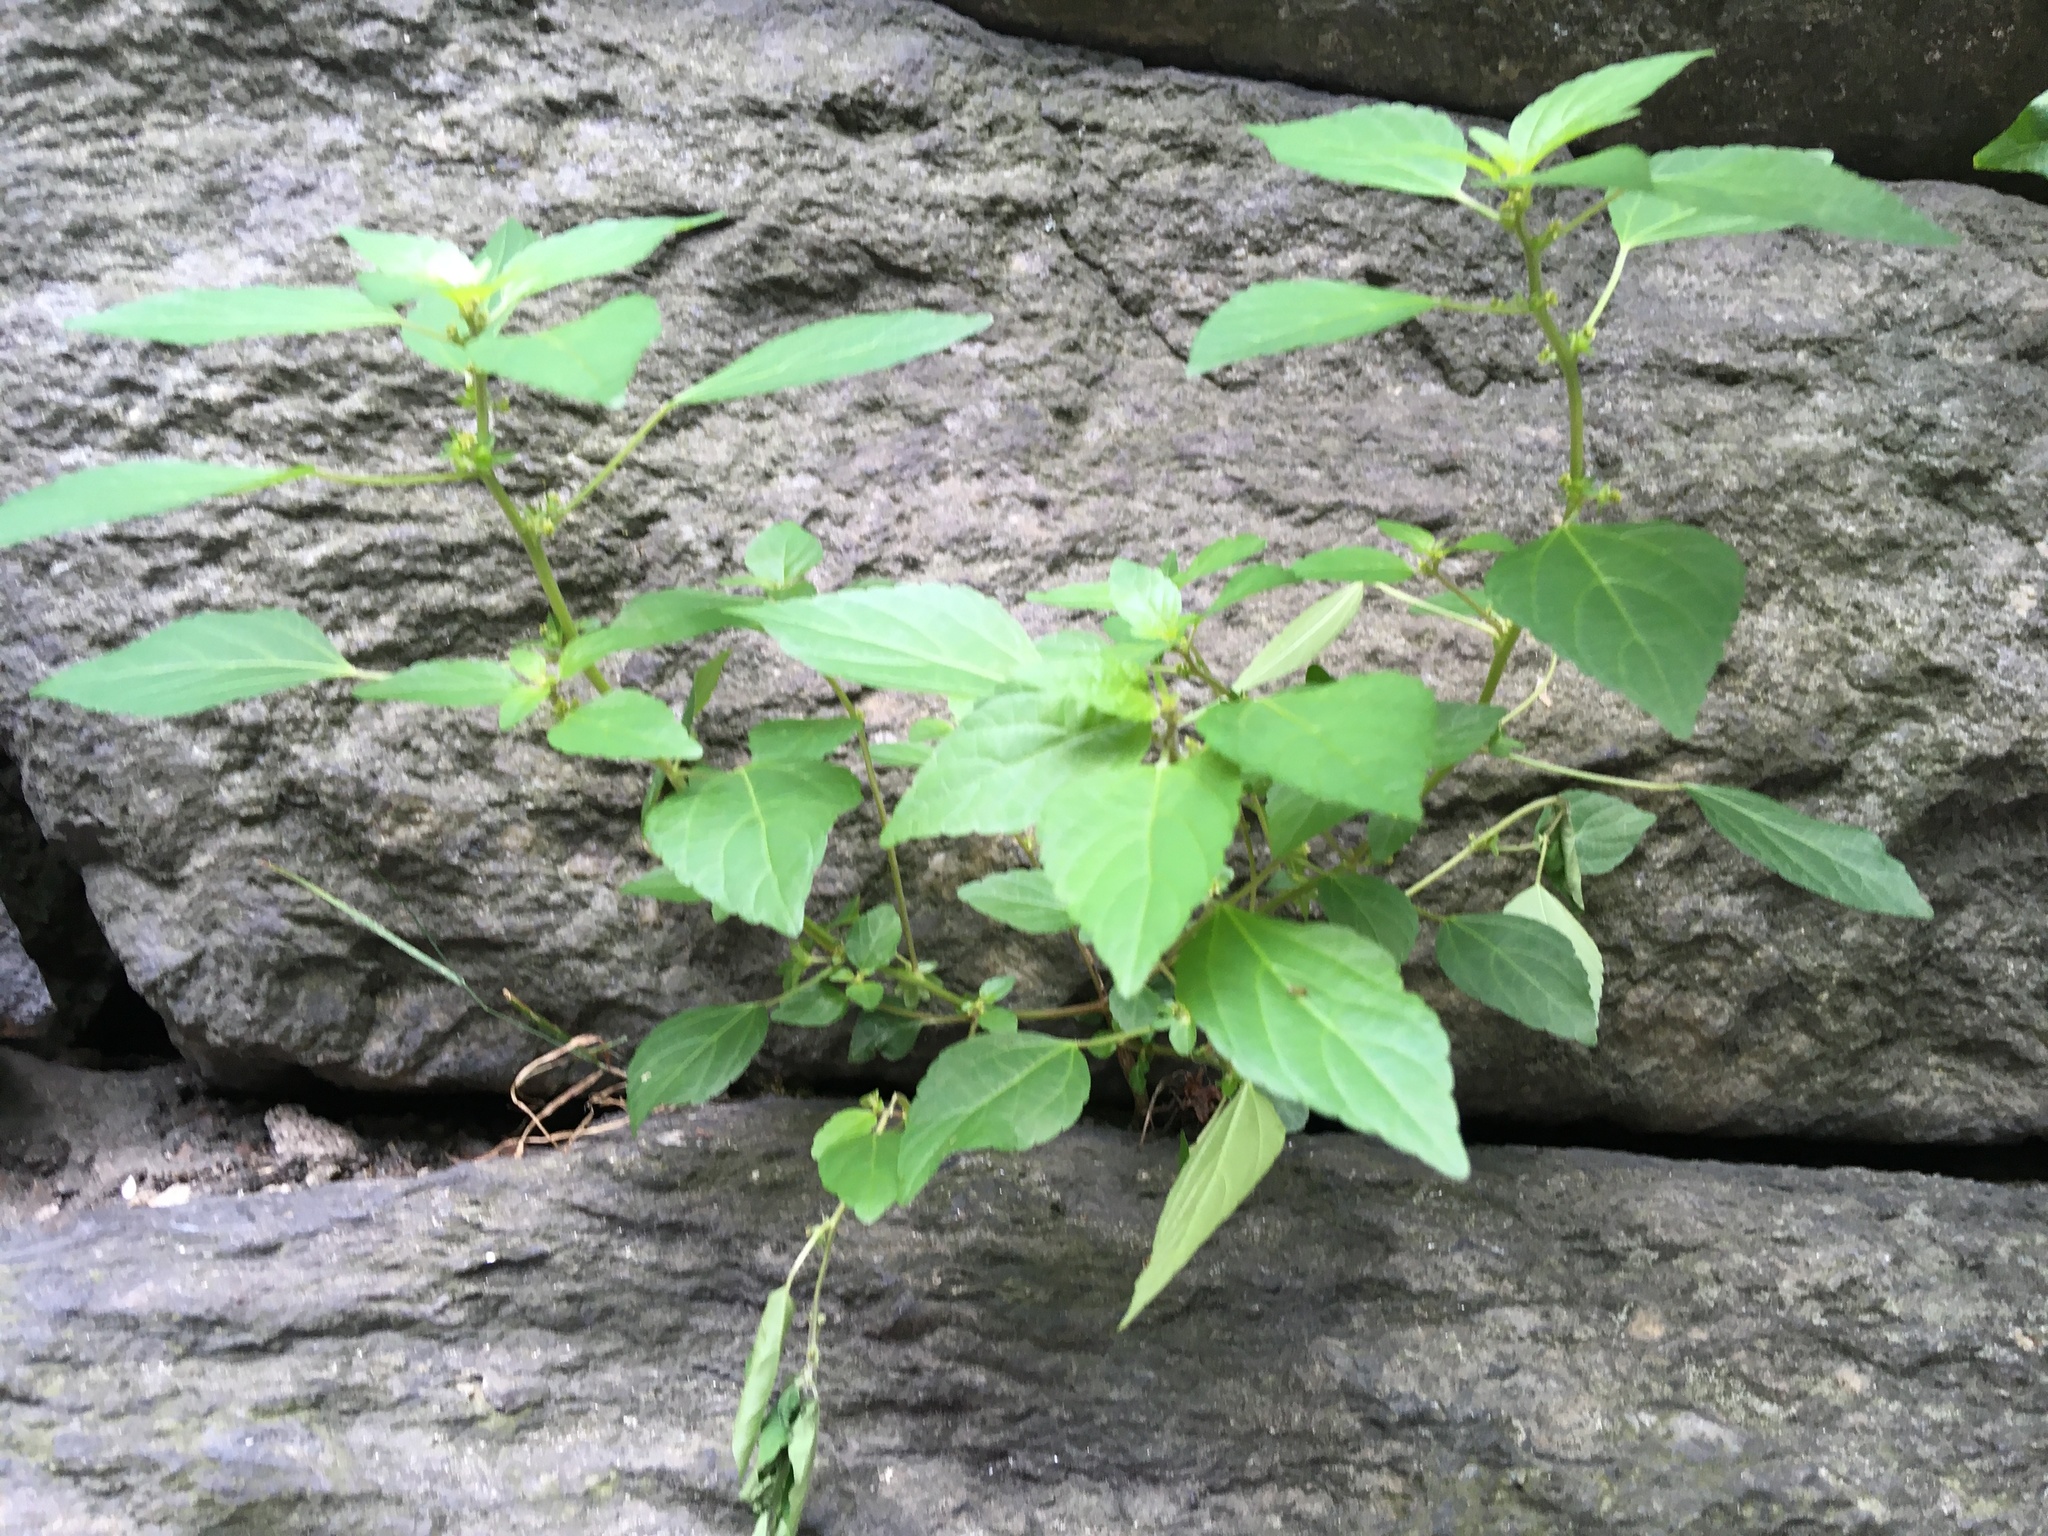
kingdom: Plantae
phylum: Tracheophyta
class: Magnoliopsida
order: Malpighiales
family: Euphorbiaceae
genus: Acalypha
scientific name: Acalypha rhomboidea
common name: Rhombic copperleaf
